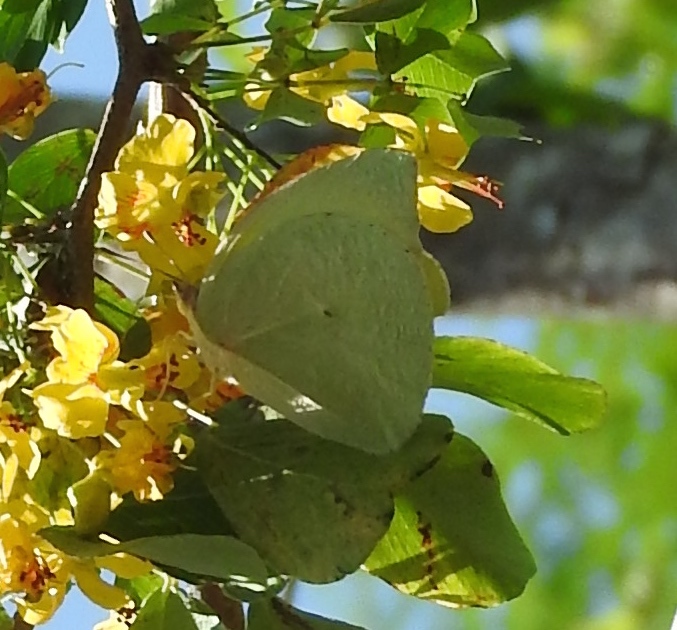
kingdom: Animalia
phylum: Arthropoda
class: Insecta
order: Lepidoptera
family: Pieridae
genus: Kricogonia
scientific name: Kricogonia lyside
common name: Guayacan sulphur,
